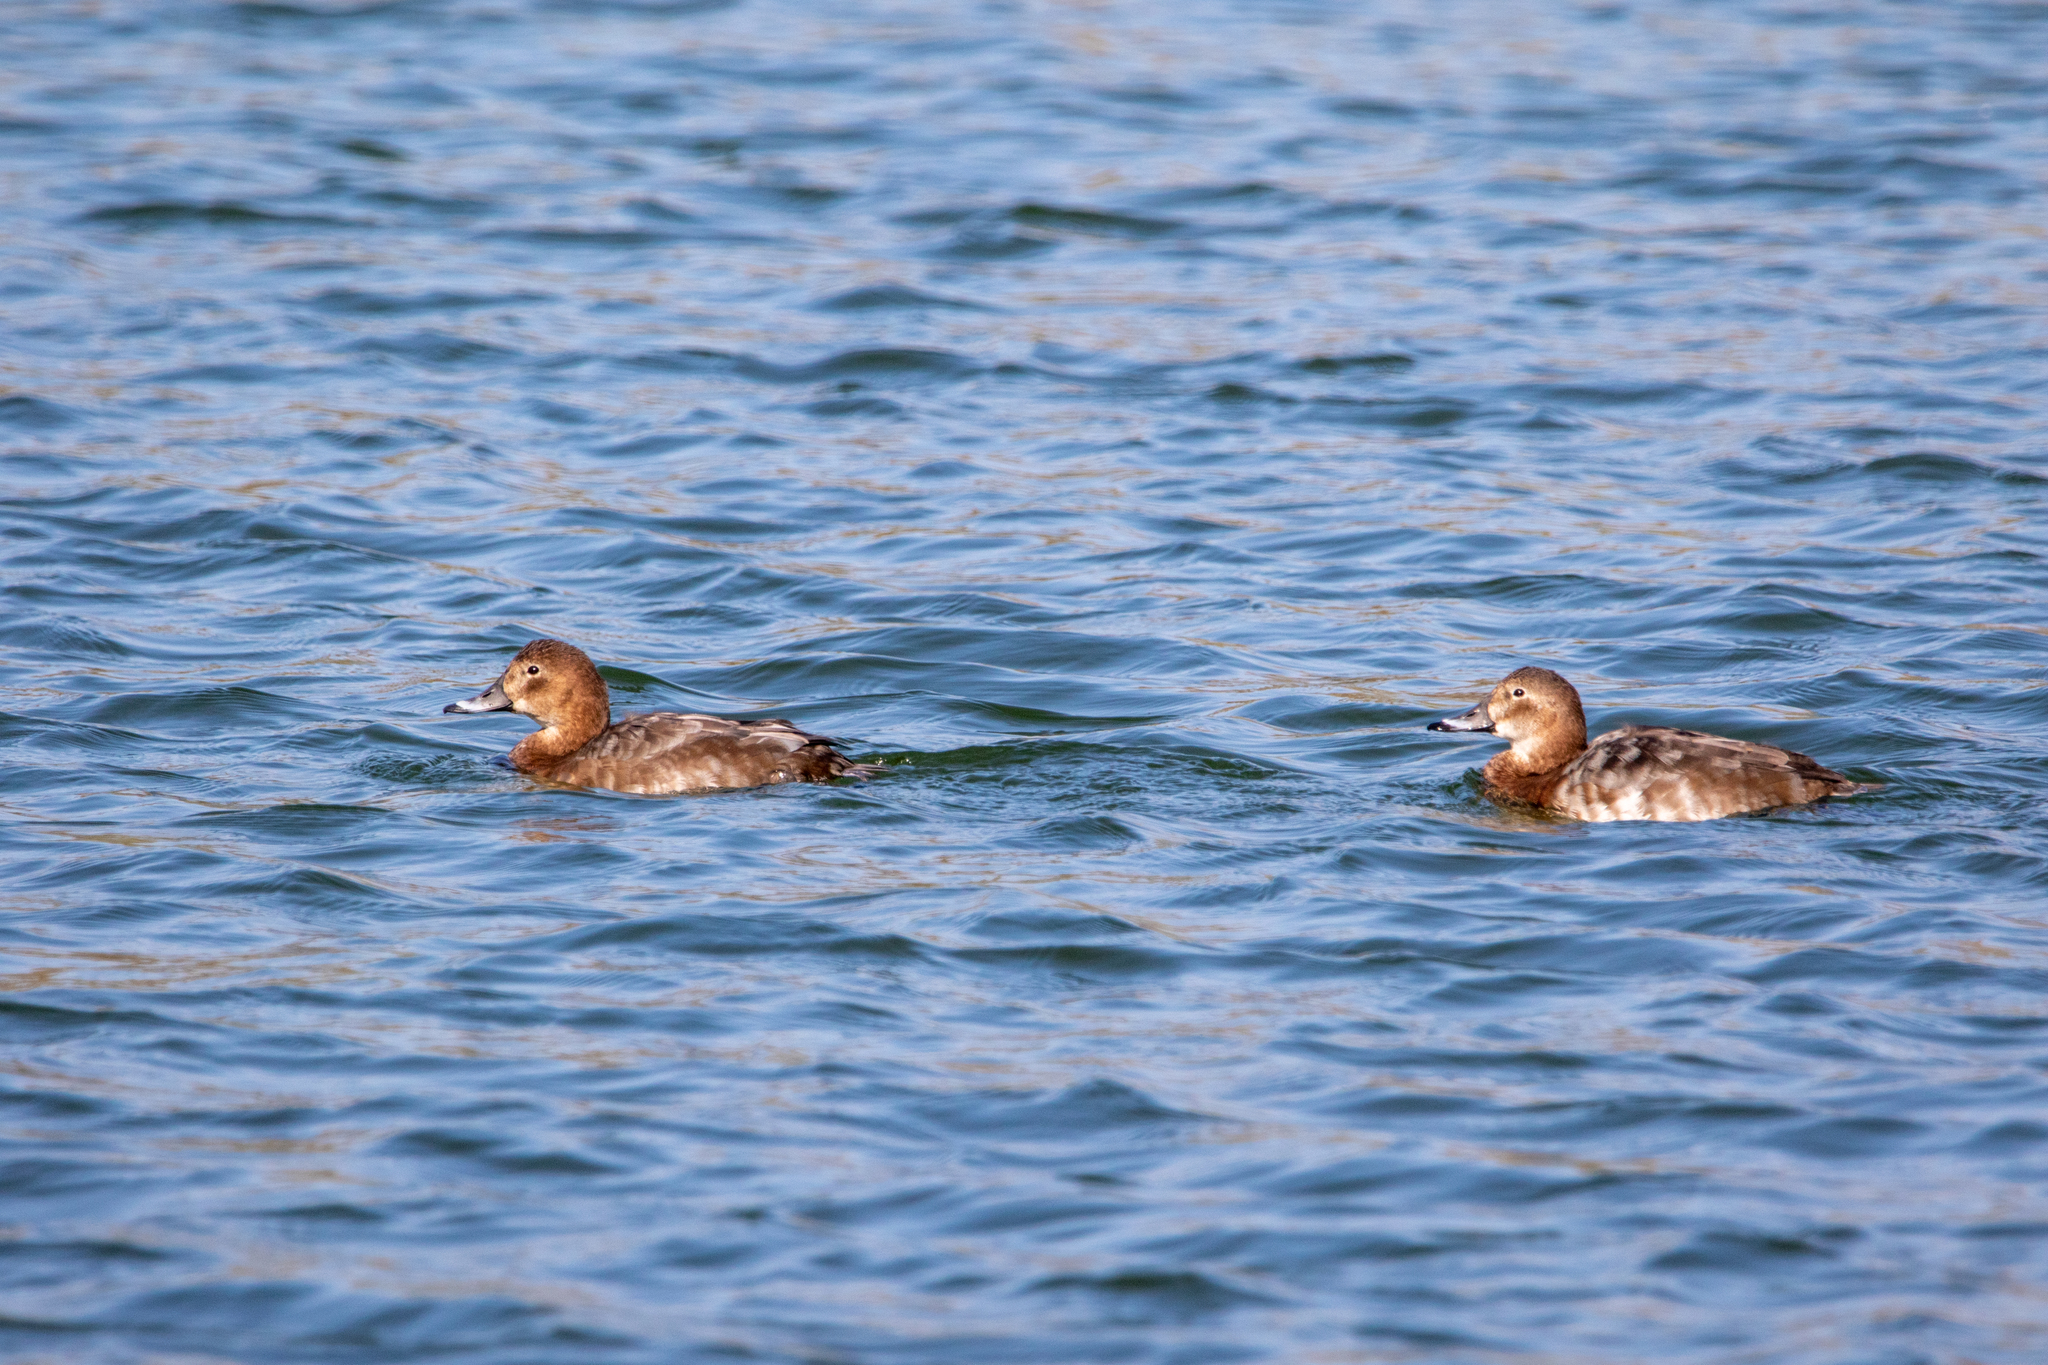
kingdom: Animalia
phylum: Chordata
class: Aves
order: Anseriformes
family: Anatidae
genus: Aythya
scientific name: Aythya ferina
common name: Common pochard
